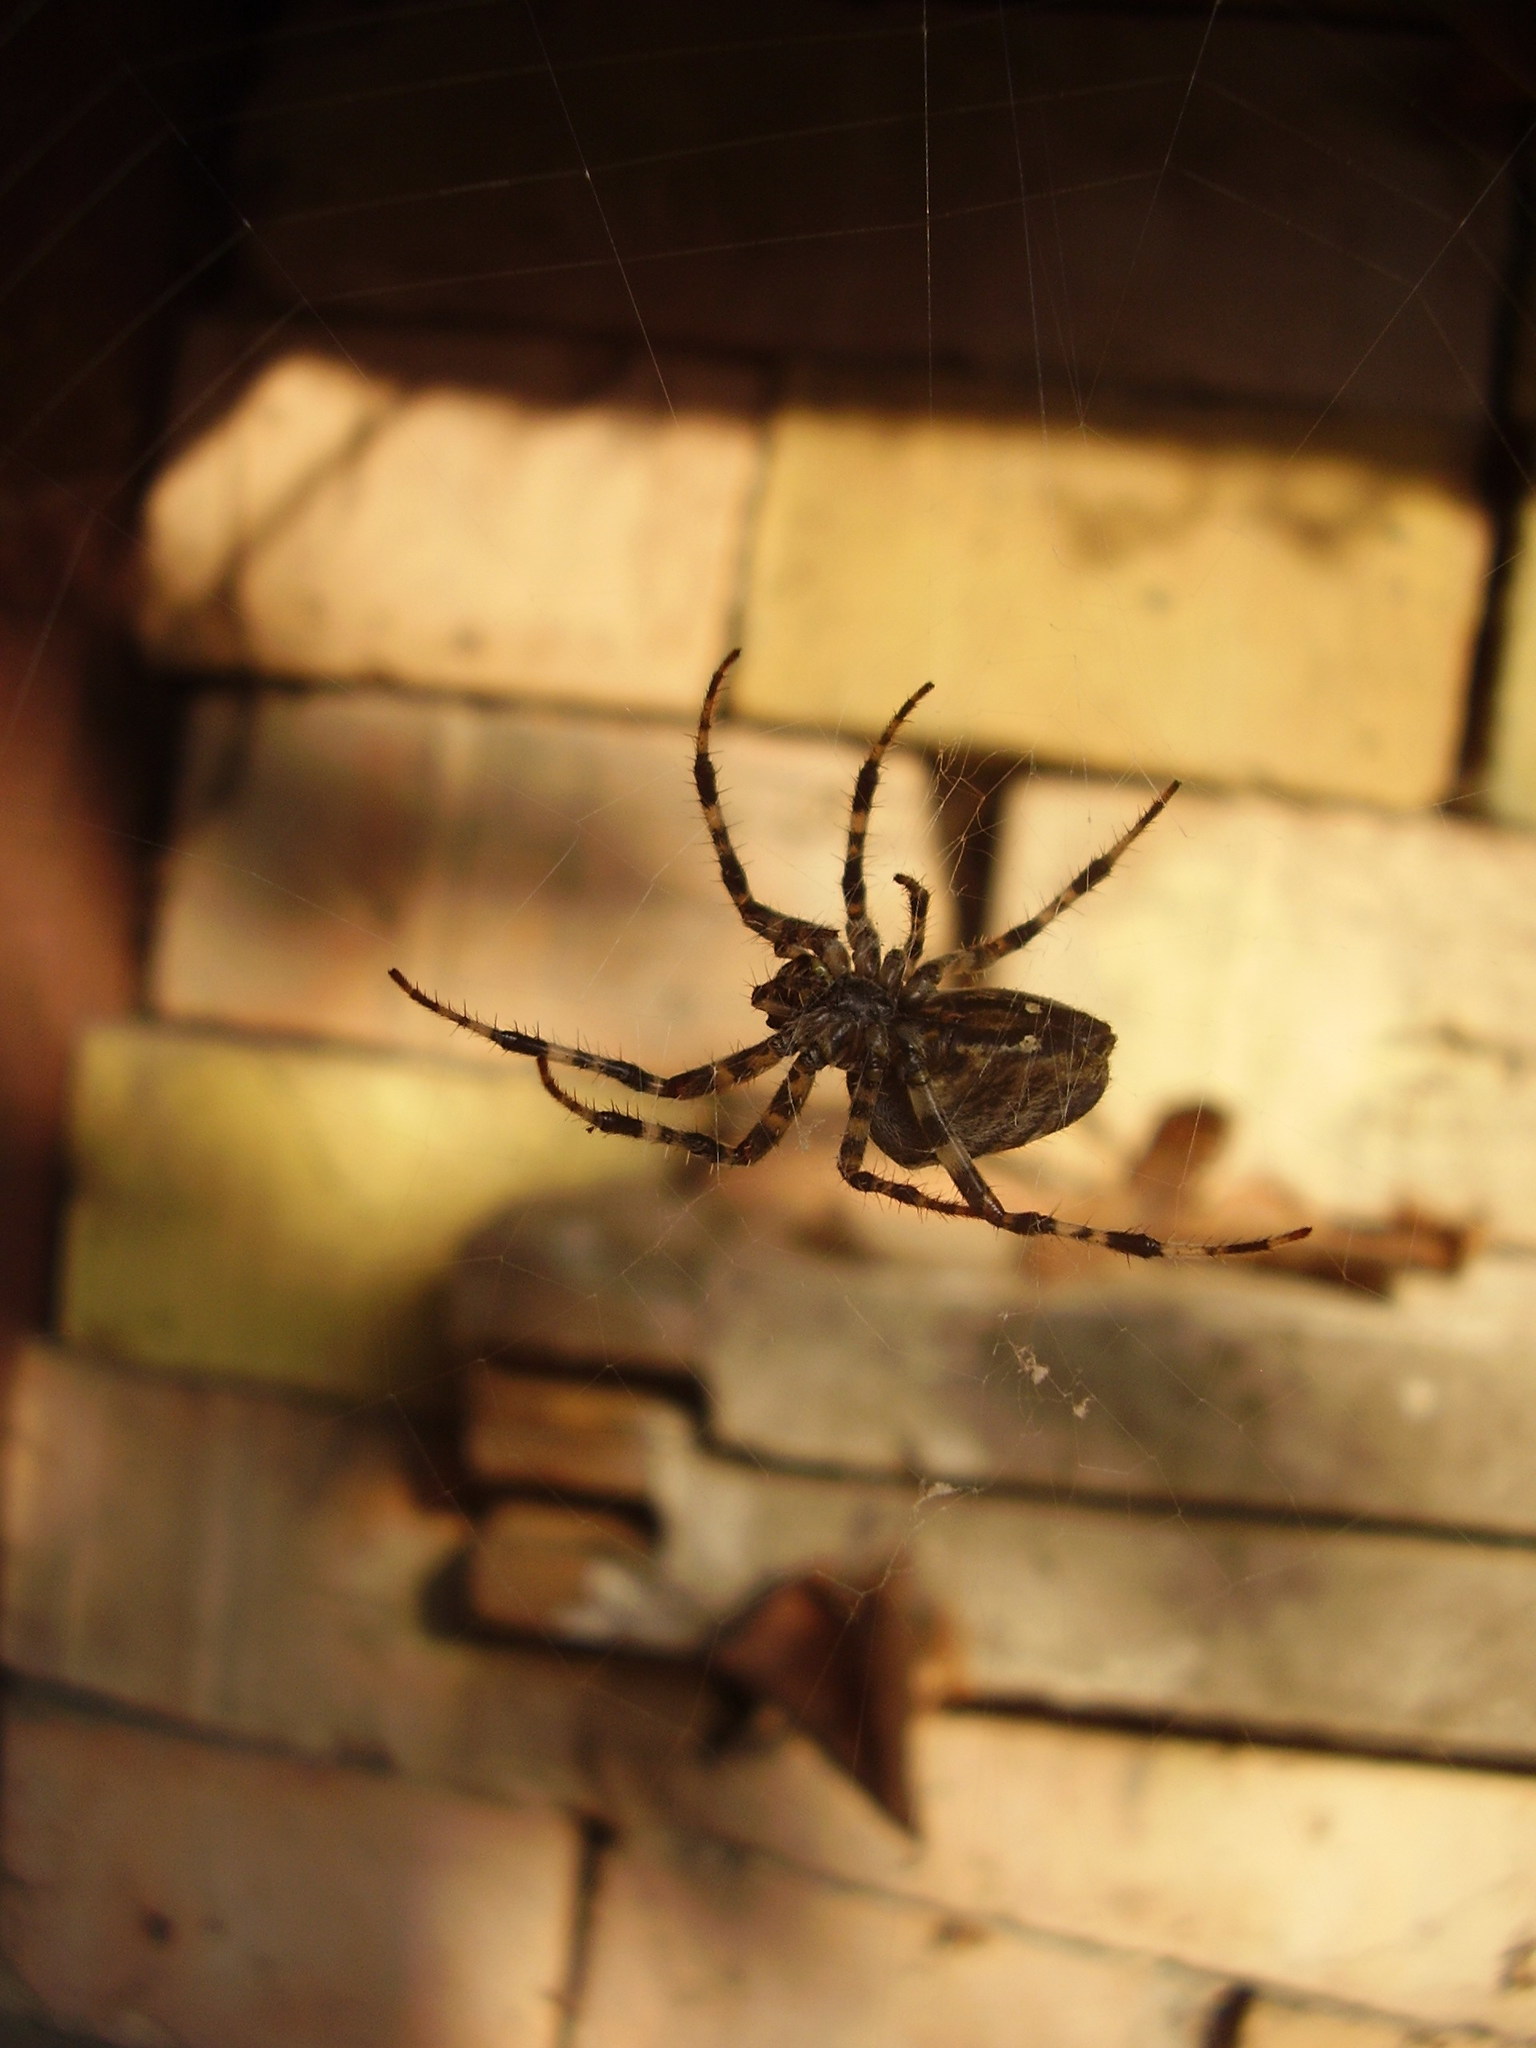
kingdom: Animalia
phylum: Arthropoda
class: Arachnida
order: Araneae
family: Araneidae
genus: Araneus
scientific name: Araneus diadematus
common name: Cross orbweaver
